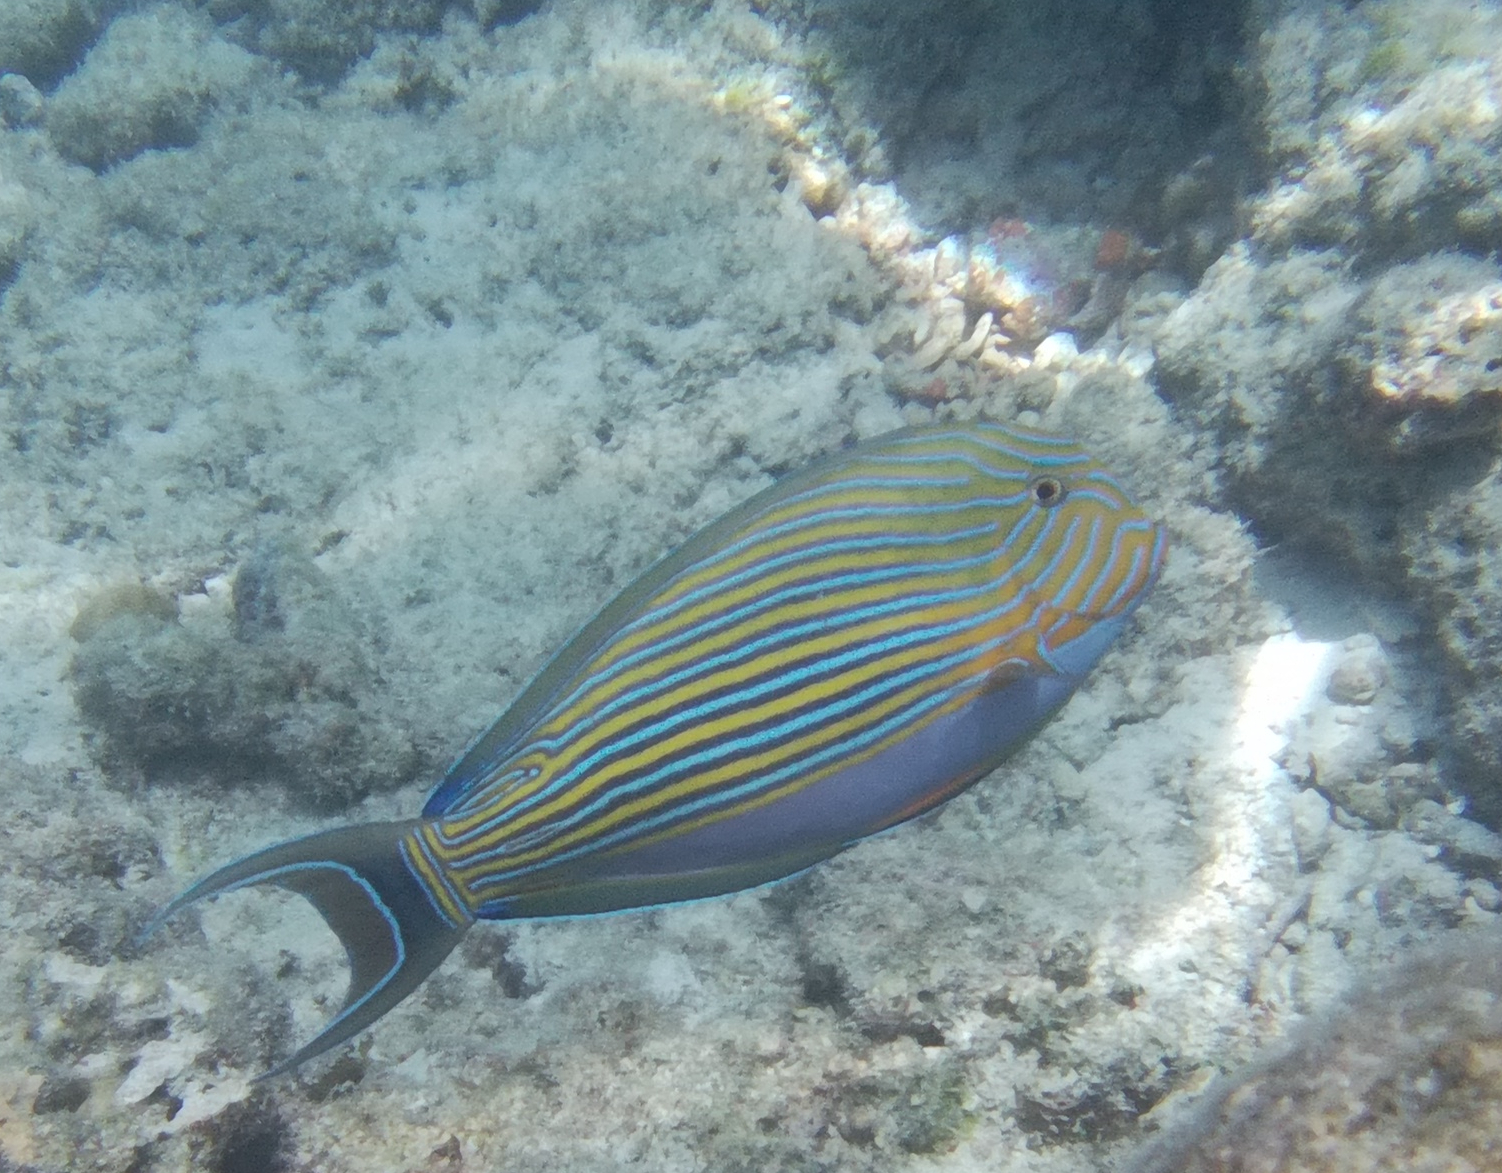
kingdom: Animalia
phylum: Chordata
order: Perciformes
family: Acanthuridae
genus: Acanthurus
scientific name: Acanthurus lineatus
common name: Striped surgeonfish
